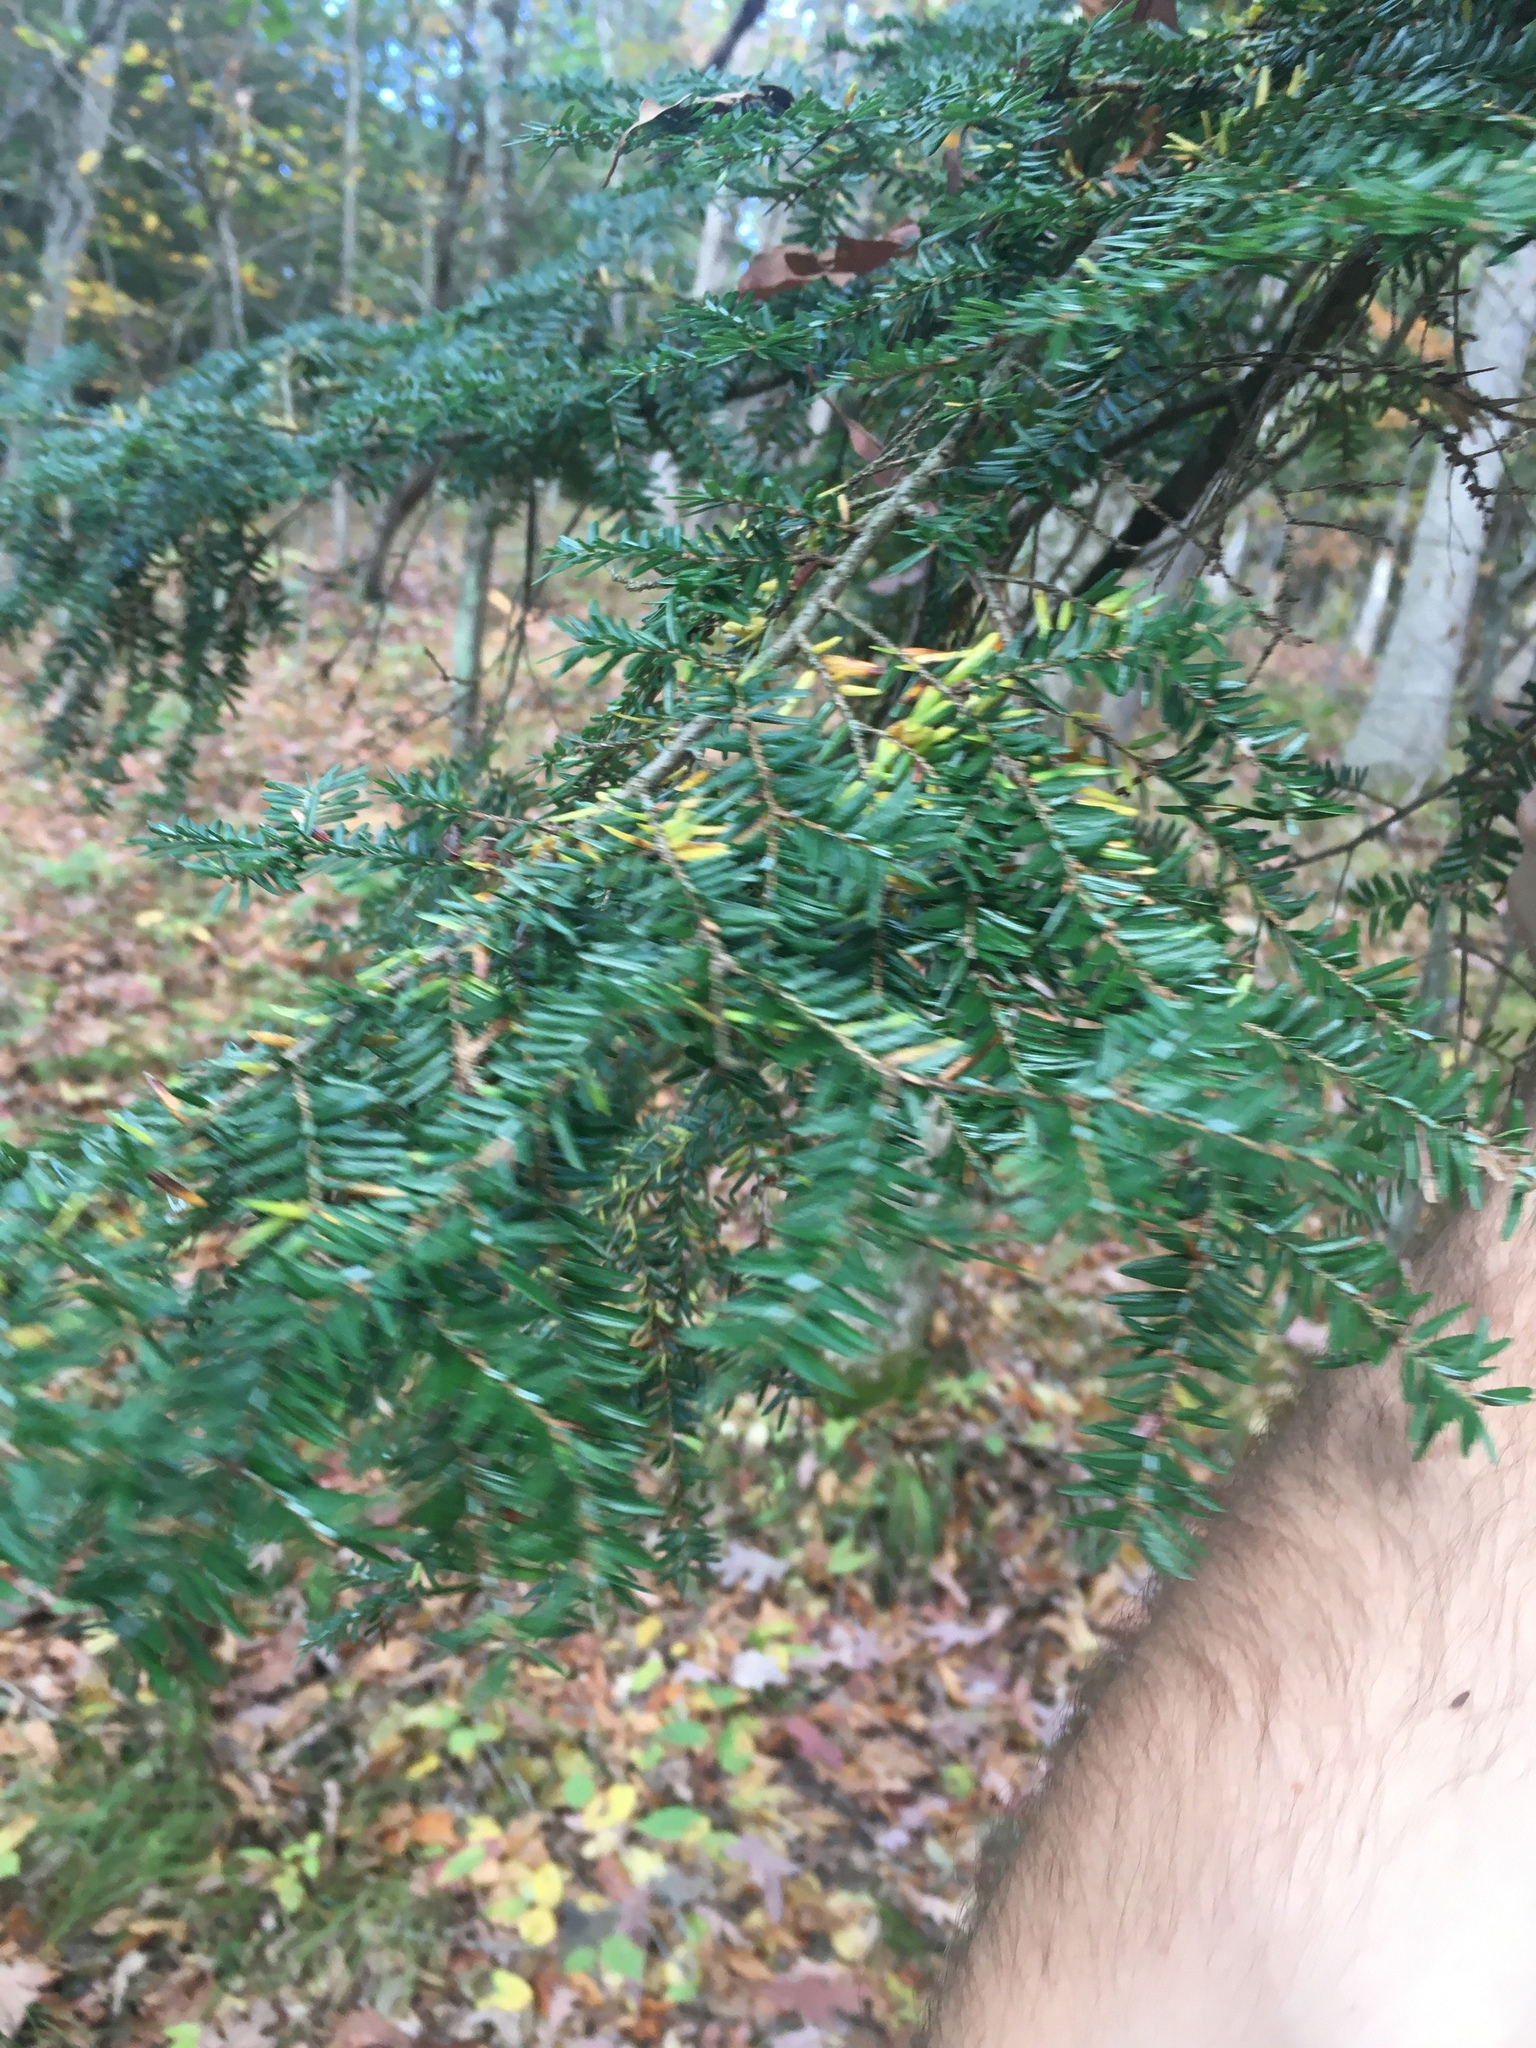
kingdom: Plantae
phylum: Tracheophyta
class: Pinopsida
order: Pinales
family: Pinaceae
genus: Tsuga
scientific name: Tsuga canadensis
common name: Eastern hemlock
